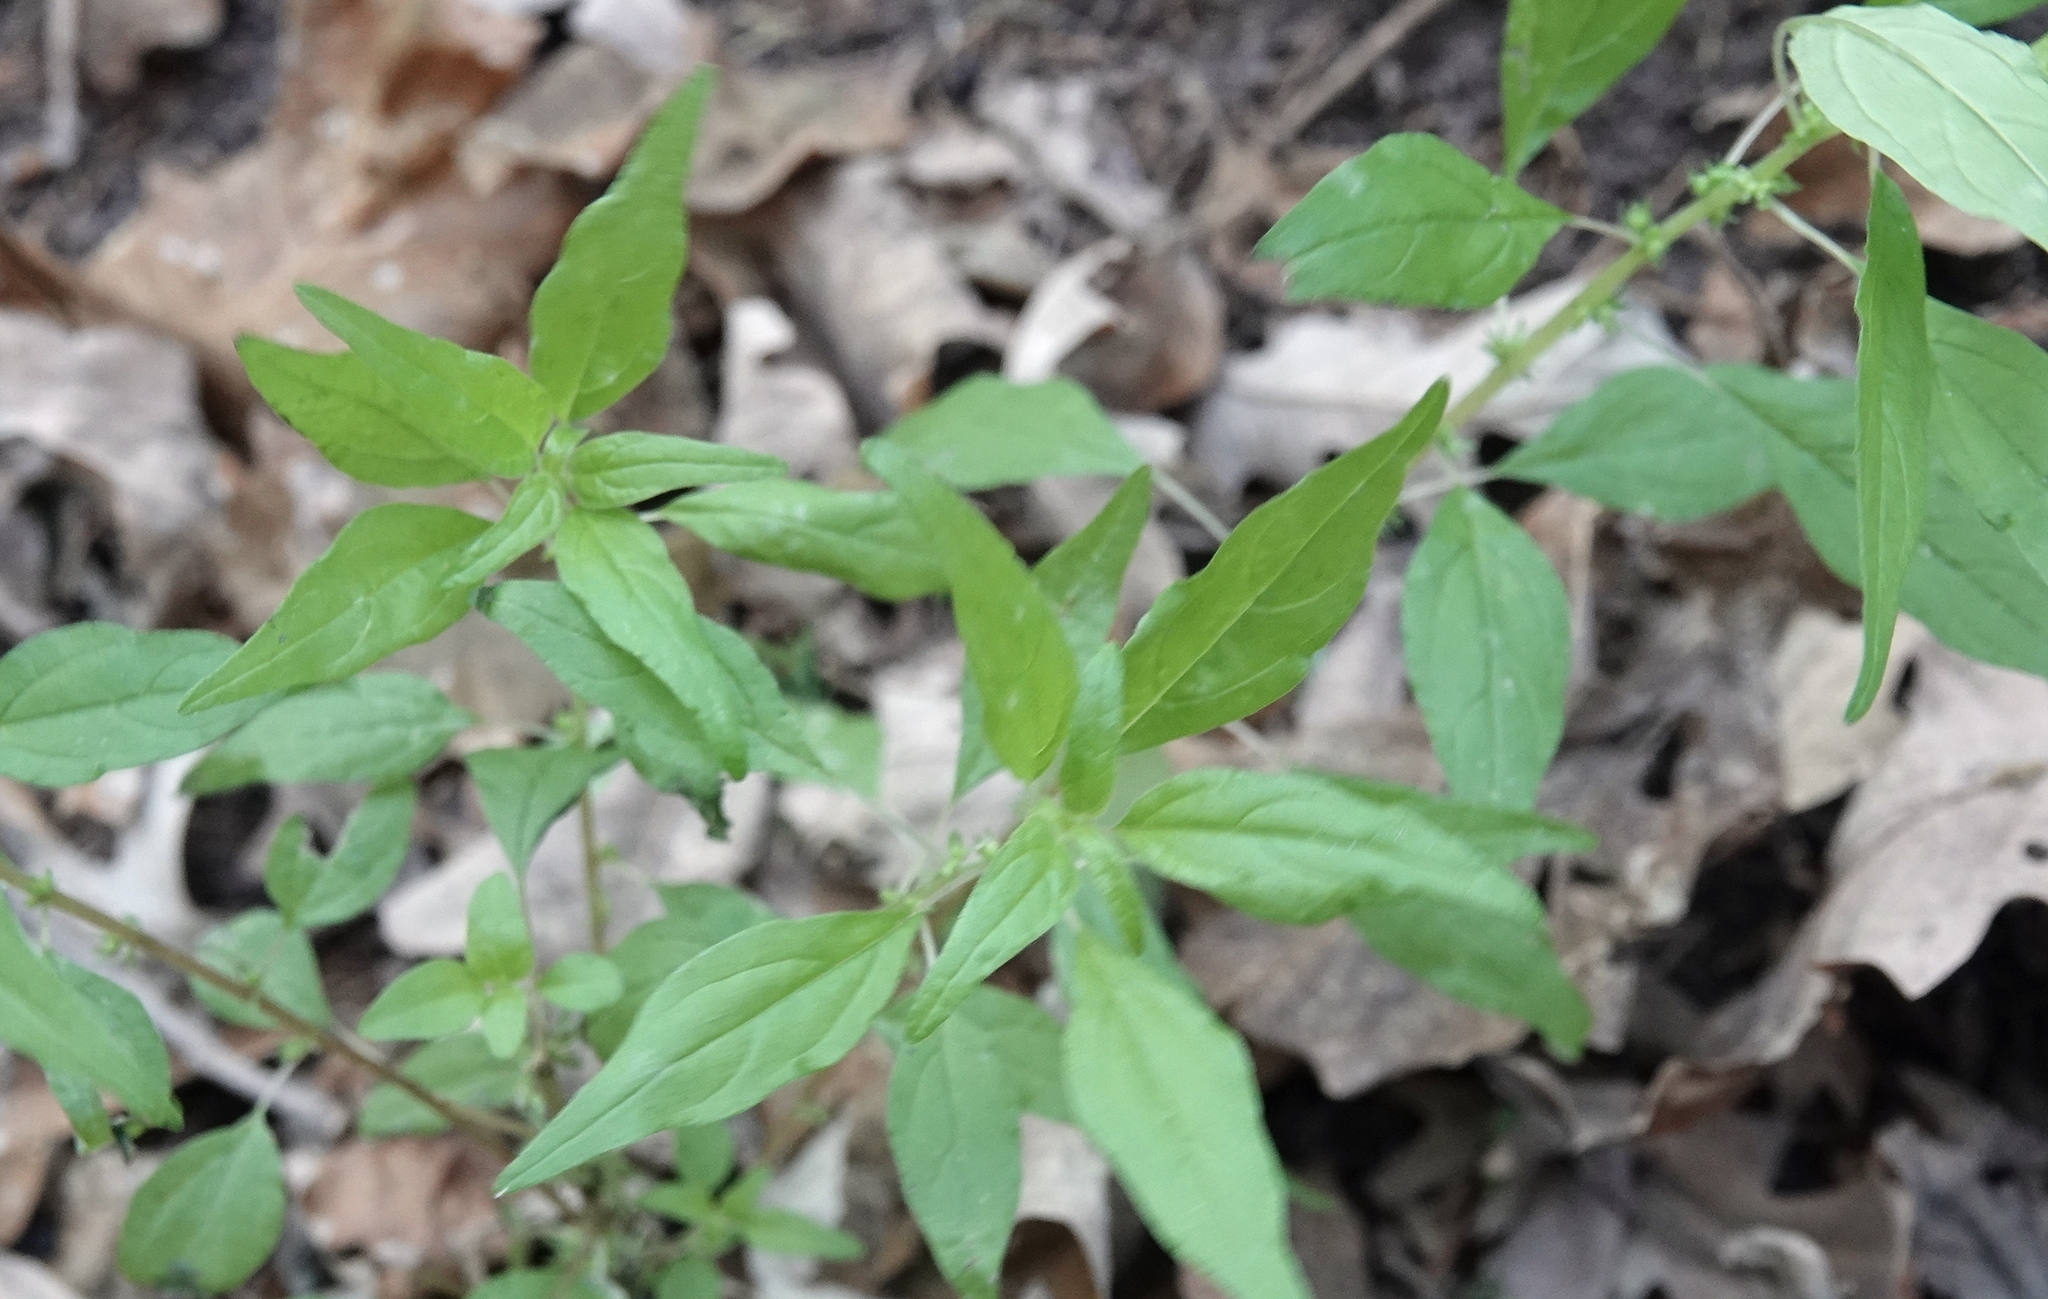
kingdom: Plantae
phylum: Tracheophyta
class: Magnoliopsida
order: Rosales
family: Urticaceae
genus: Parietaria
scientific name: Parietaria pensylvanica
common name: Pennsylvania pellitory
